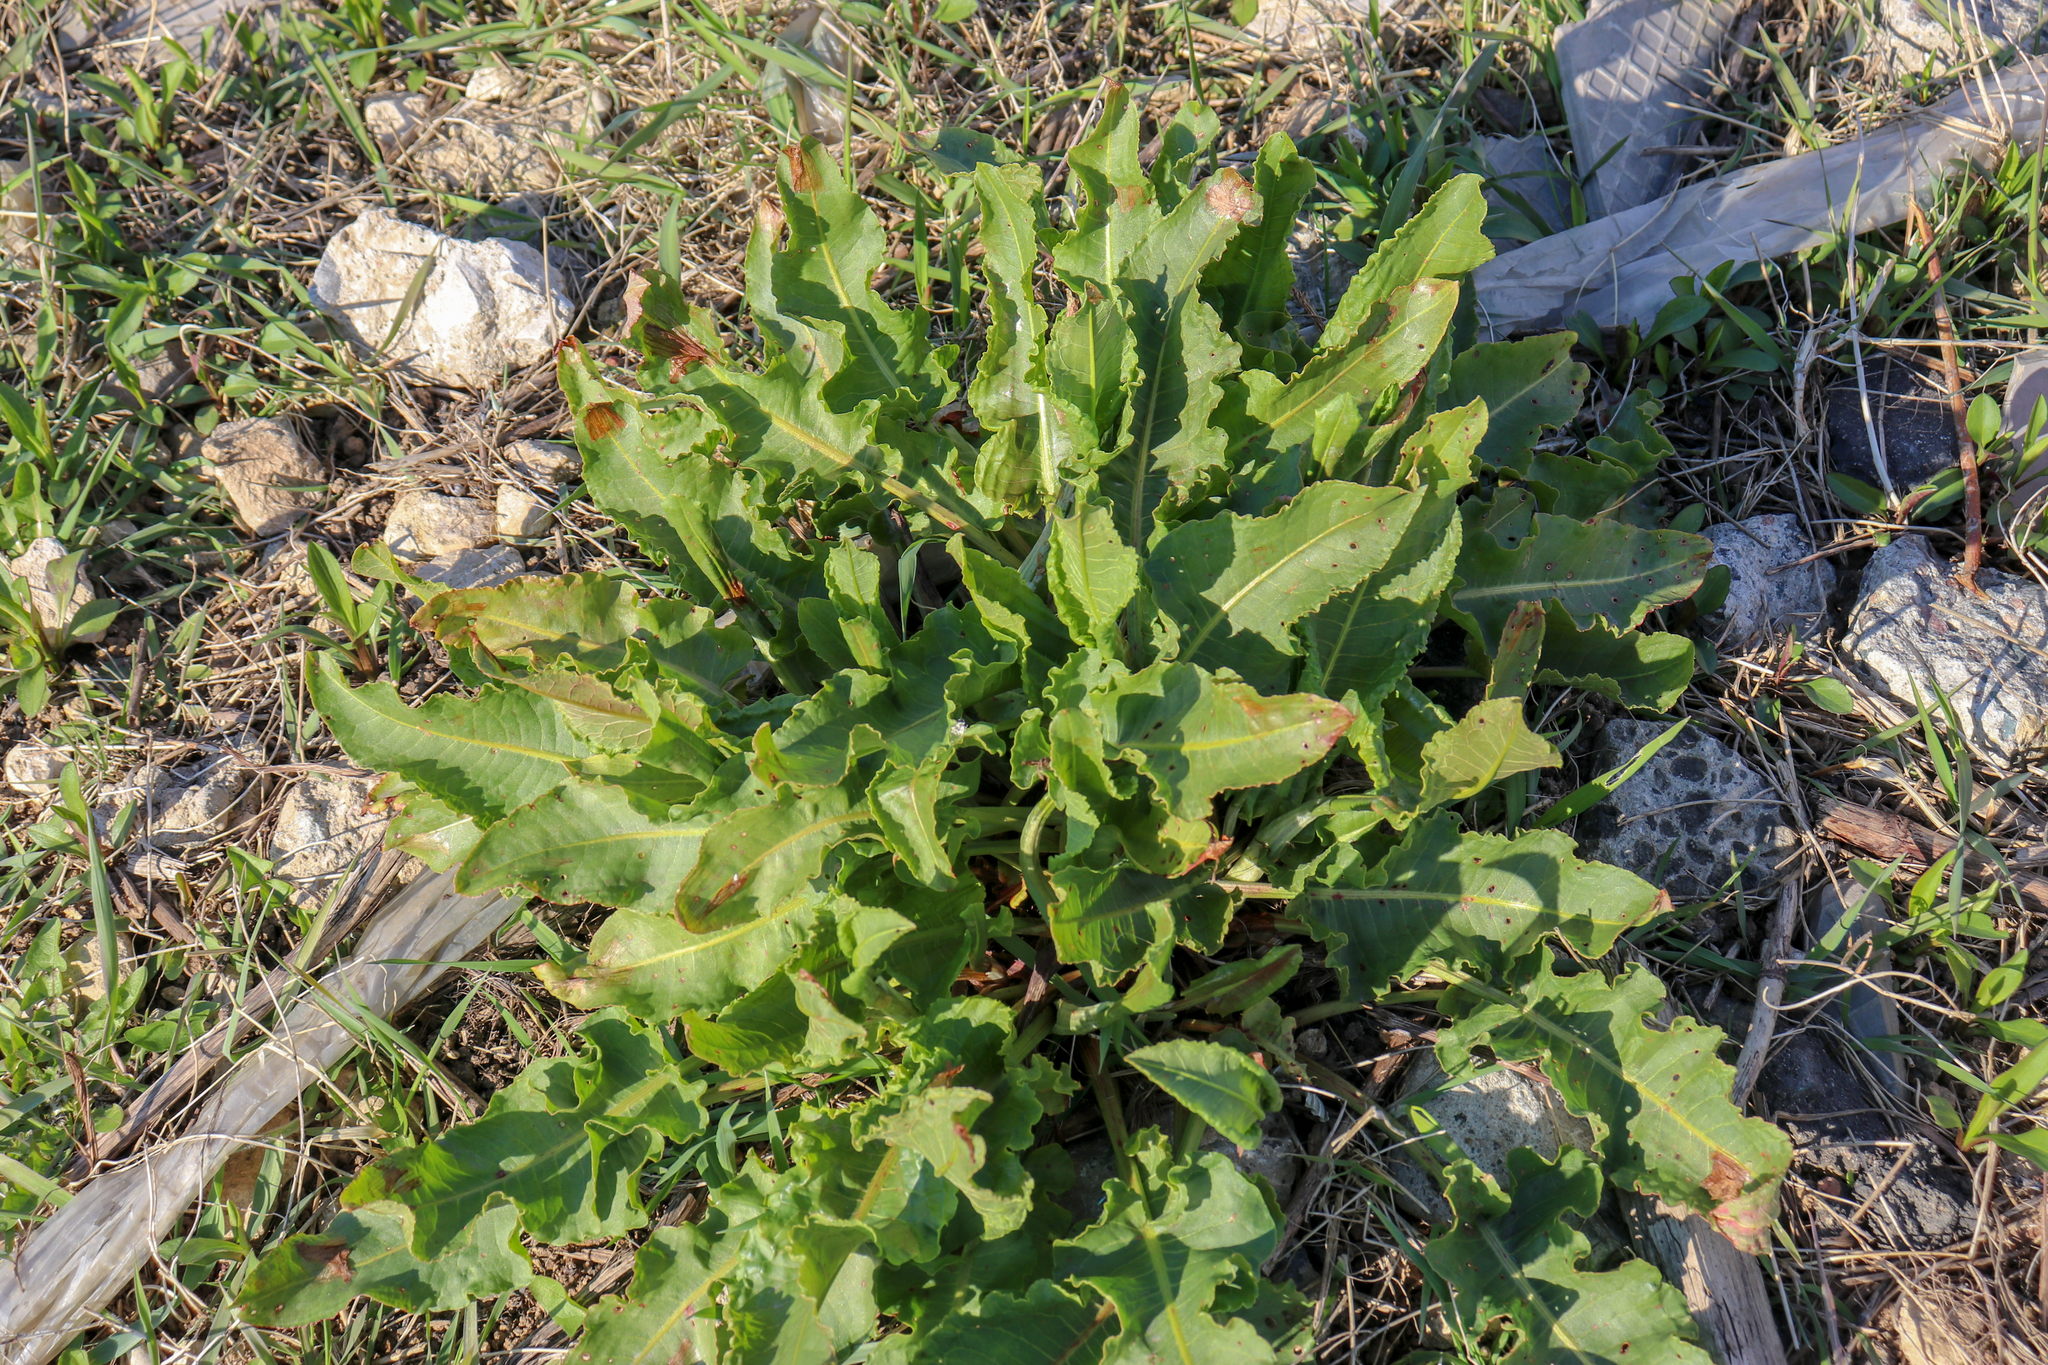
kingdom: Plantae
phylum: Tracheophyta
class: Magnoliopsida
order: Caryophyllales
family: Polygonaceae
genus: Rumex
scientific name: Rumex confertus
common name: Russian dock
